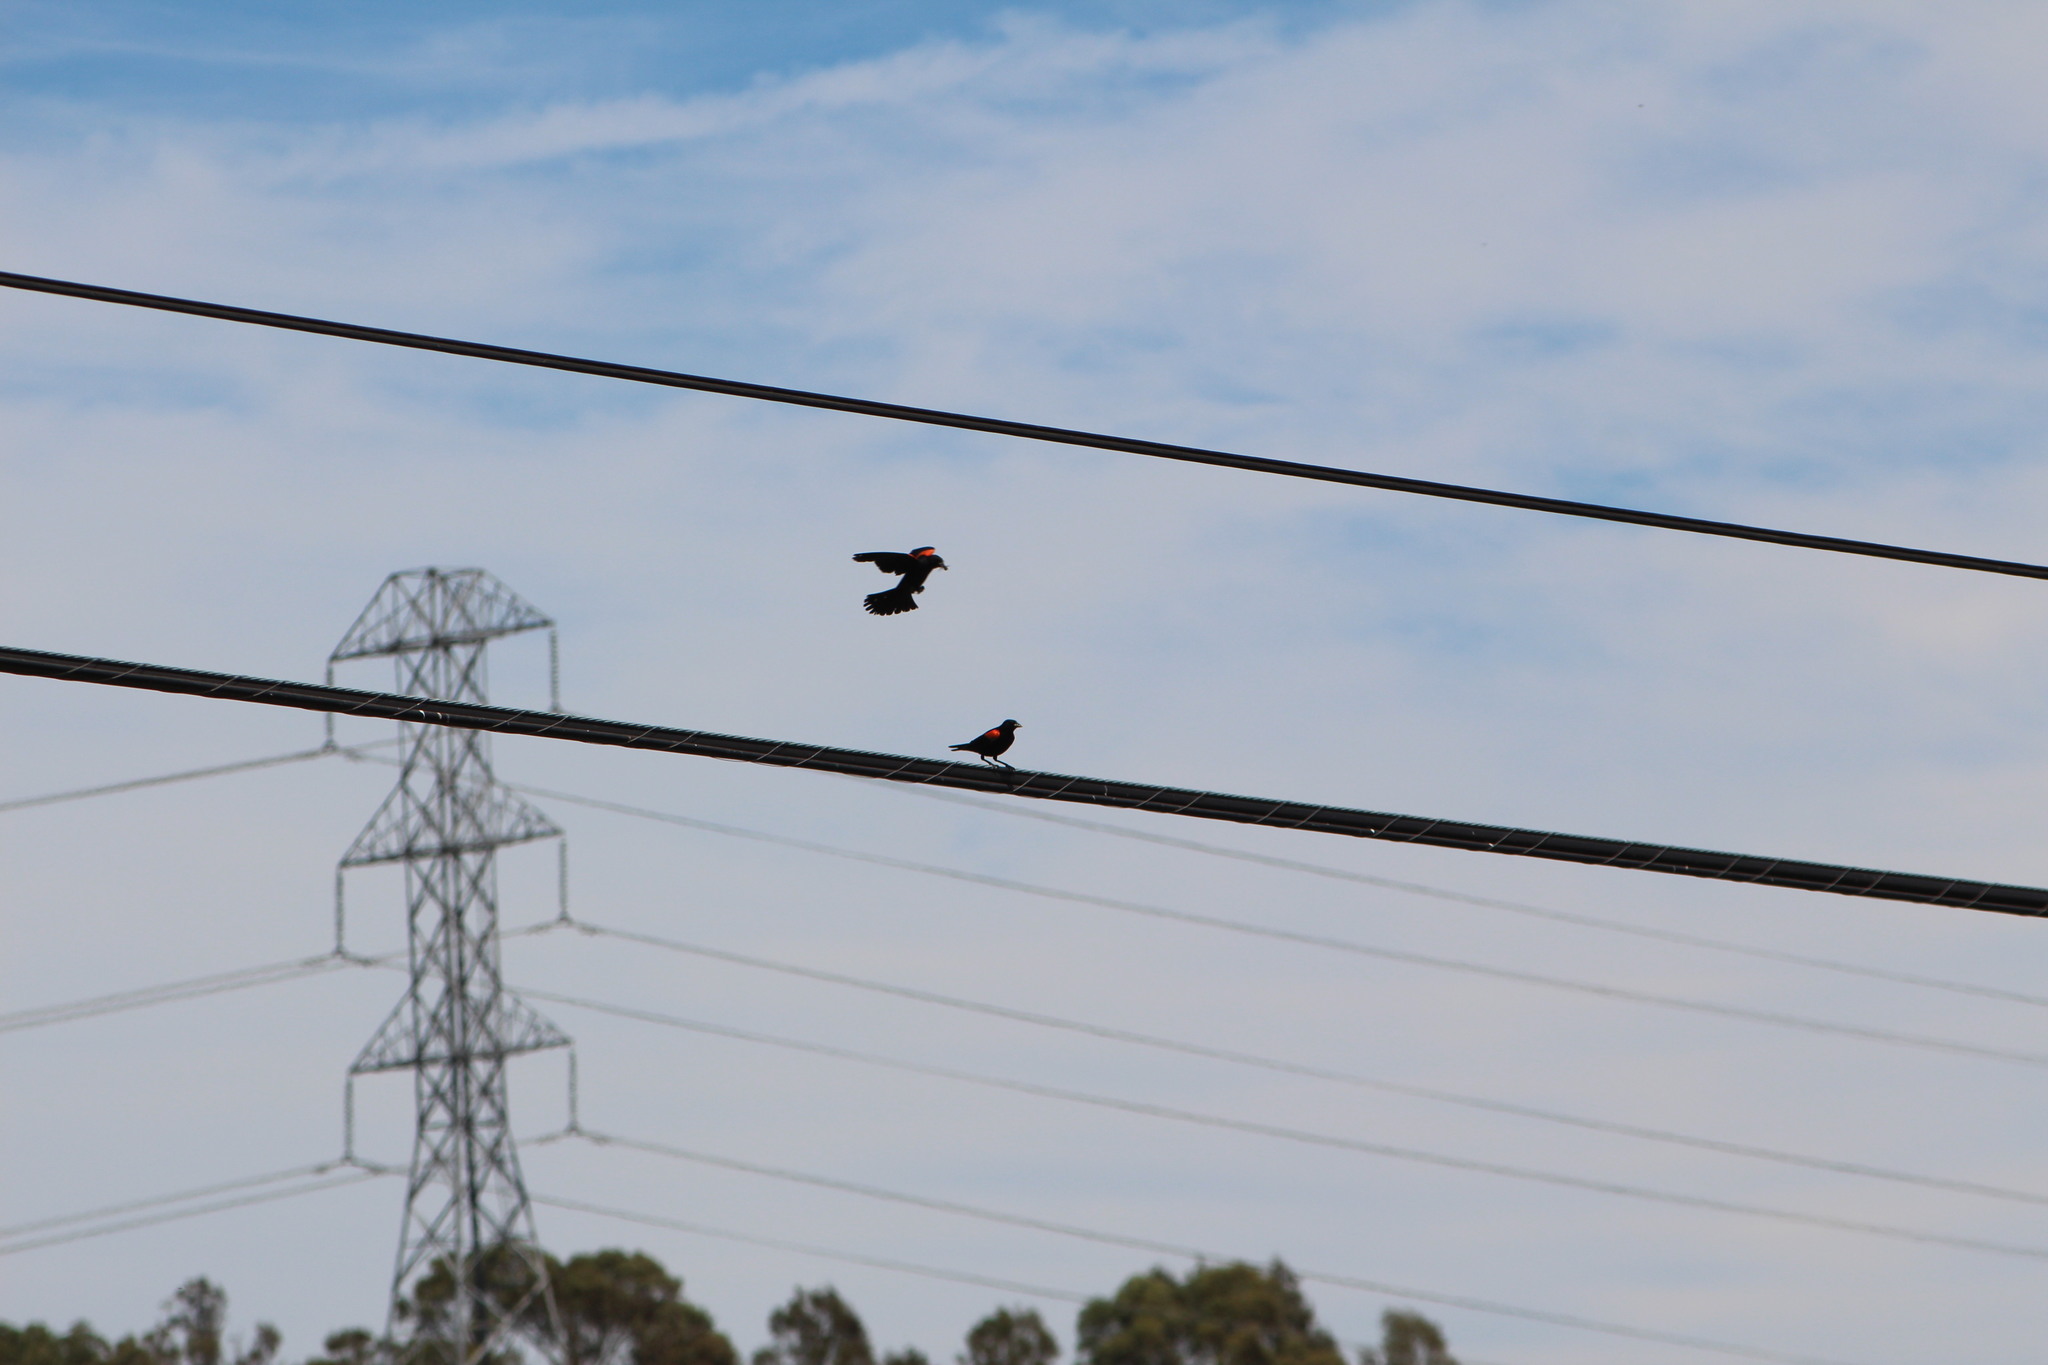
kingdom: Animalia
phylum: Chordata
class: Aves
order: Passeriformes
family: Icteridae
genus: Agelaius
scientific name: Agelaius phoeniceus
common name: Red-winged blackbird
